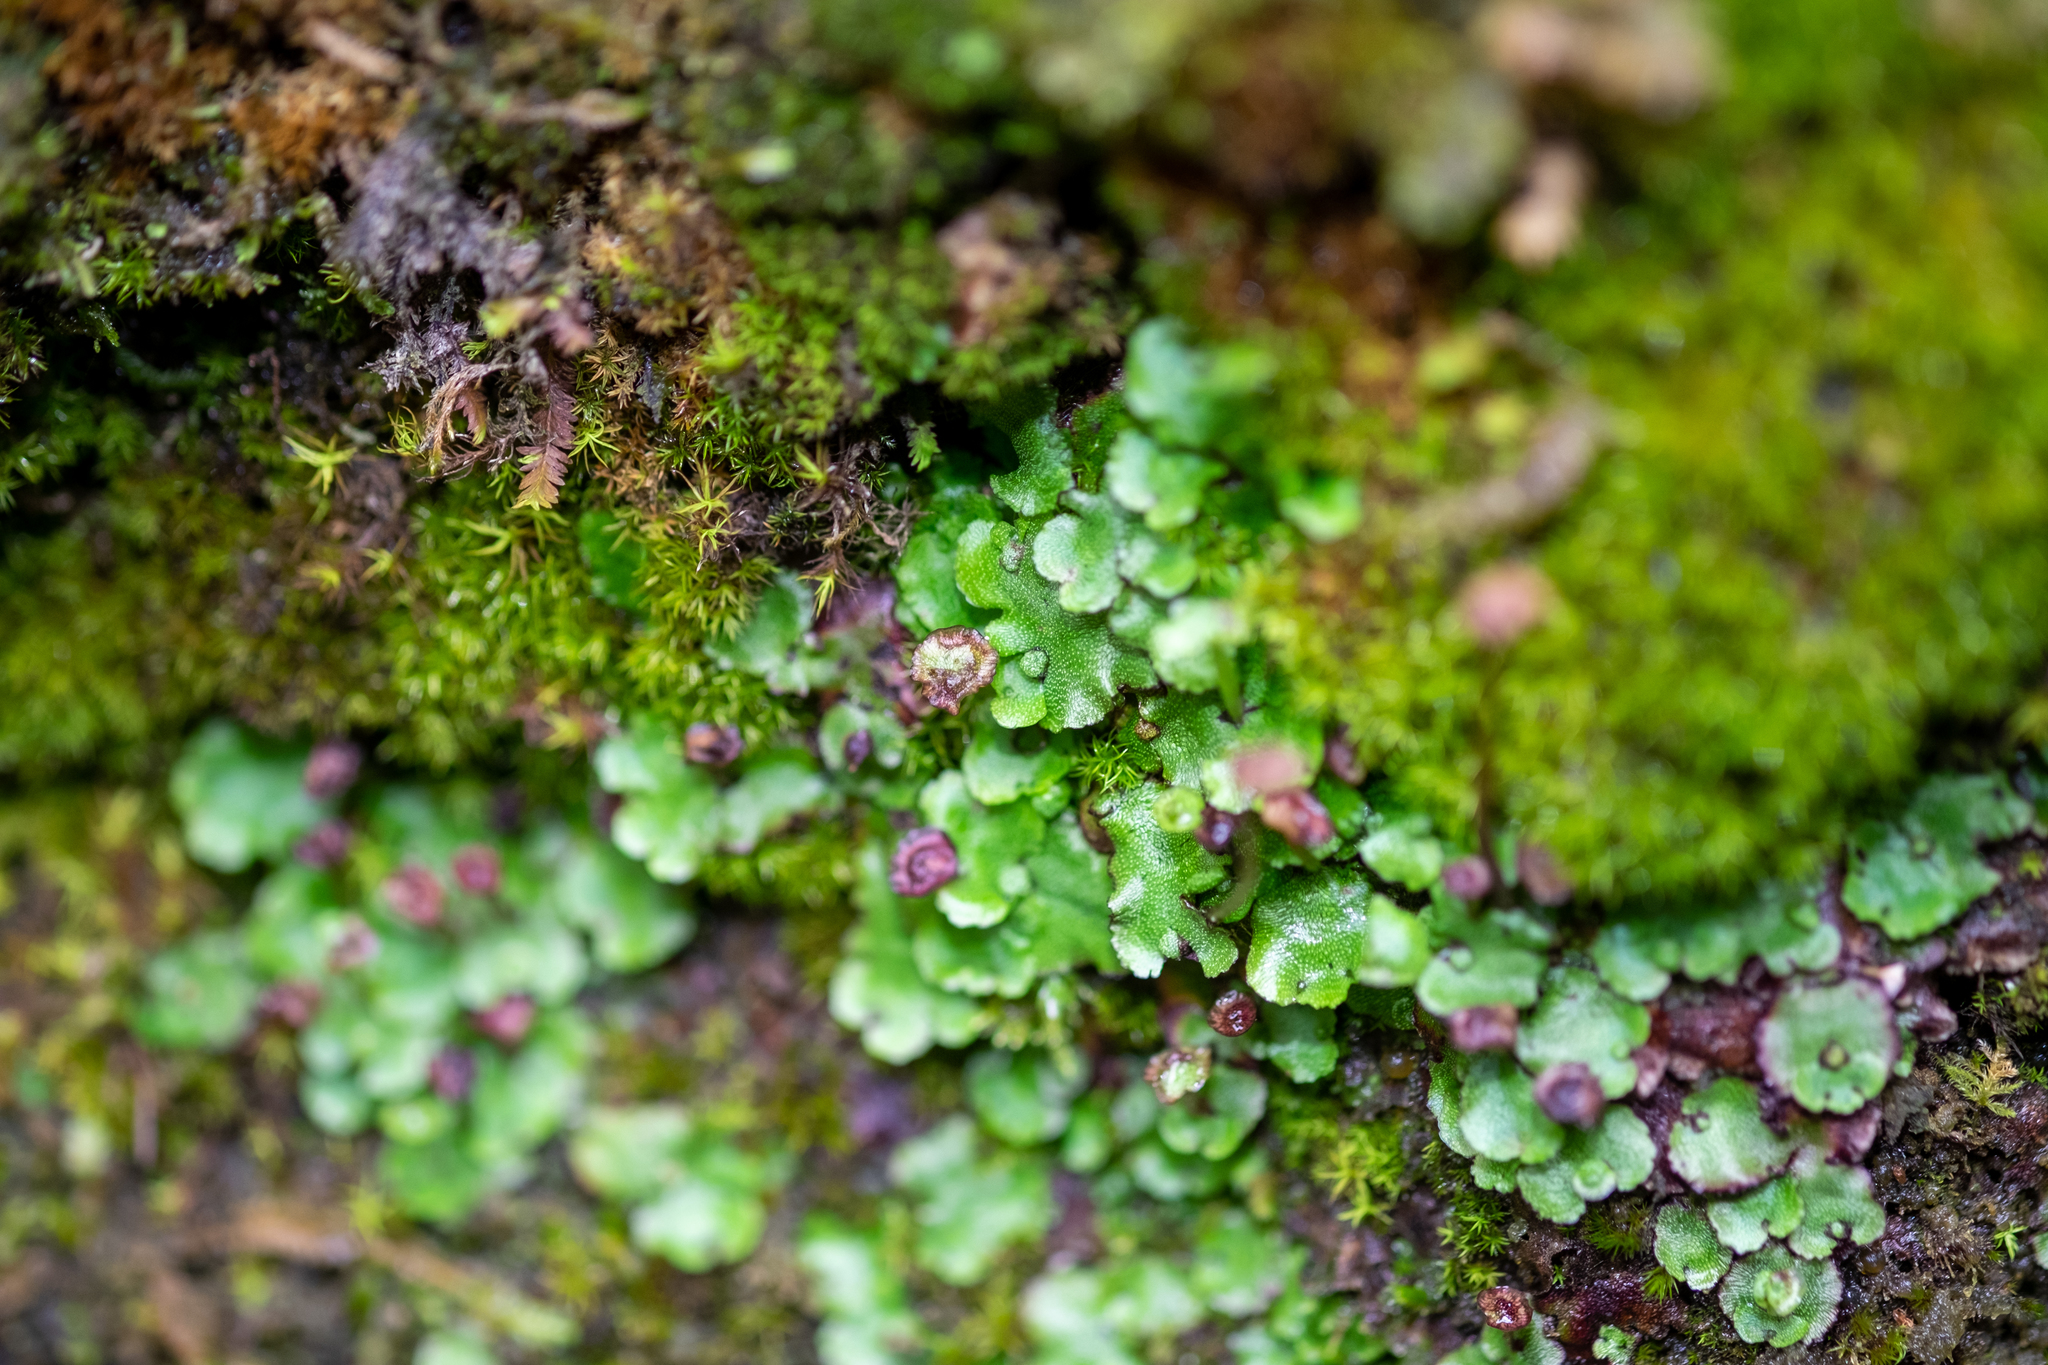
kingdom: Plantae
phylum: Marchantiophyta
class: Marchantiopsida
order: Marchantiales
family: Marchantiaceae
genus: Marchantia
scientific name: Marchantia quadrata
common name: Narrow mushroom-headed liverwort
